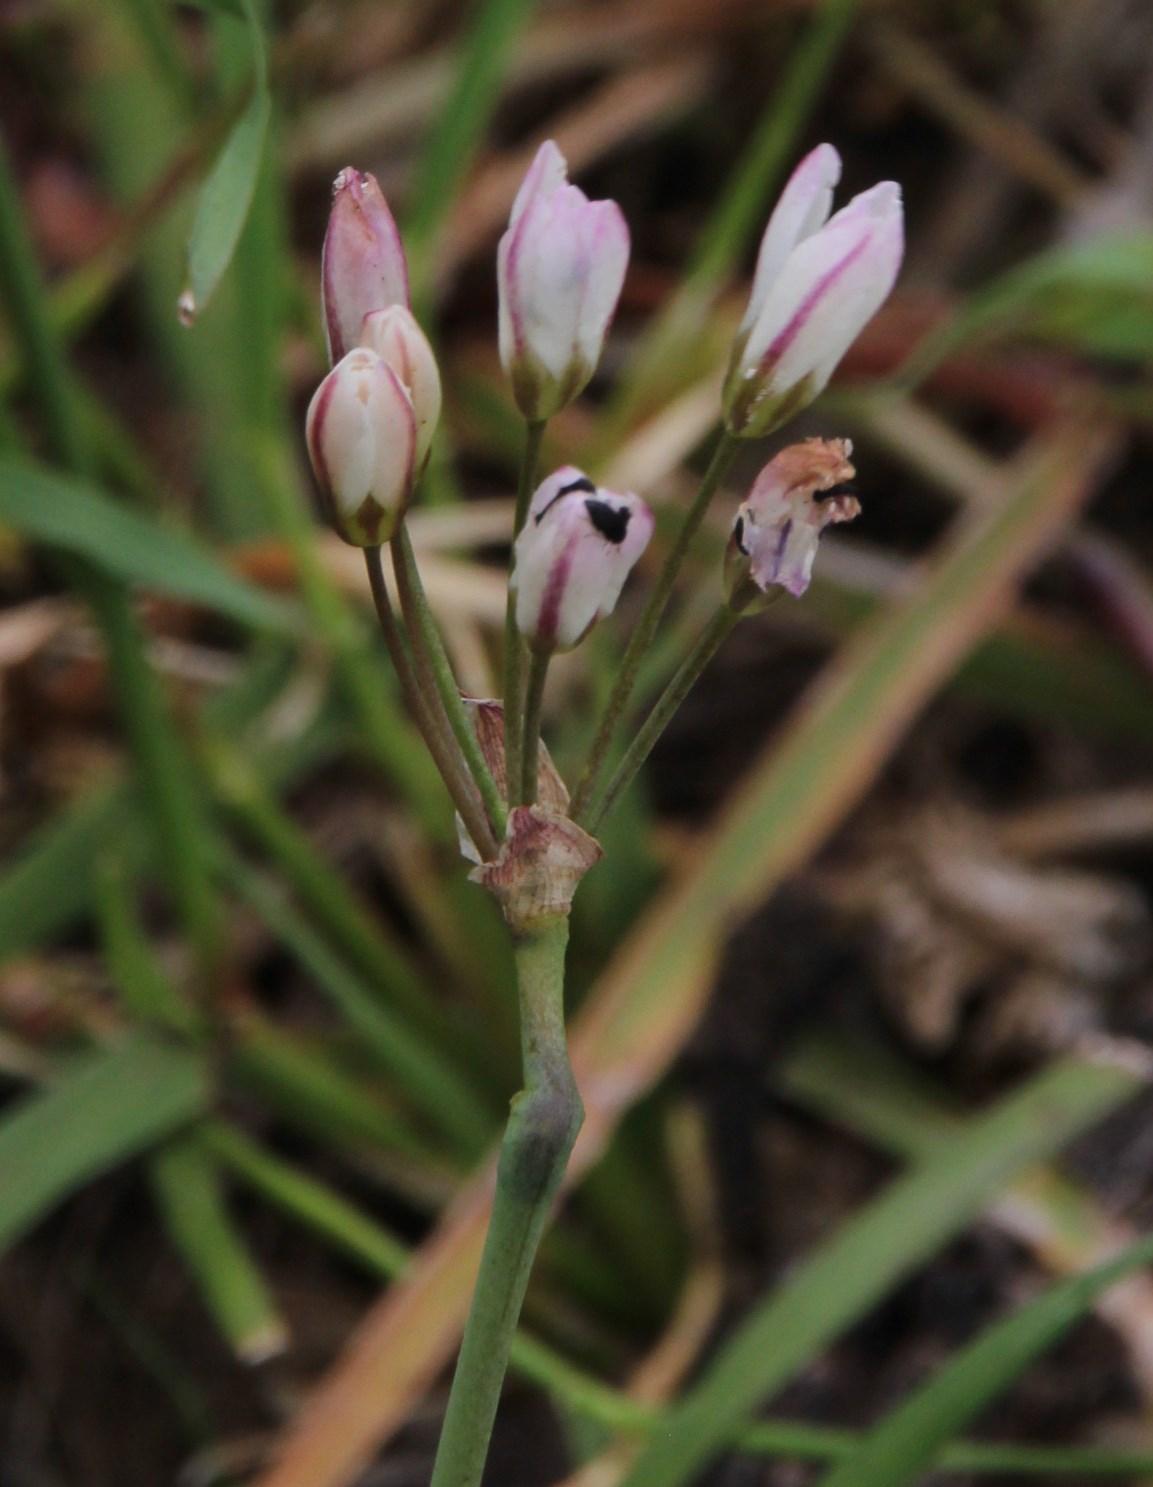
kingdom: Plantae
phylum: Tracheophyta
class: Liliopsida
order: Asparagales
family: Amaryllidaceae
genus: Nothoscordum
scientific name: Nothoscordum gracile
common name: Slender false garlic
